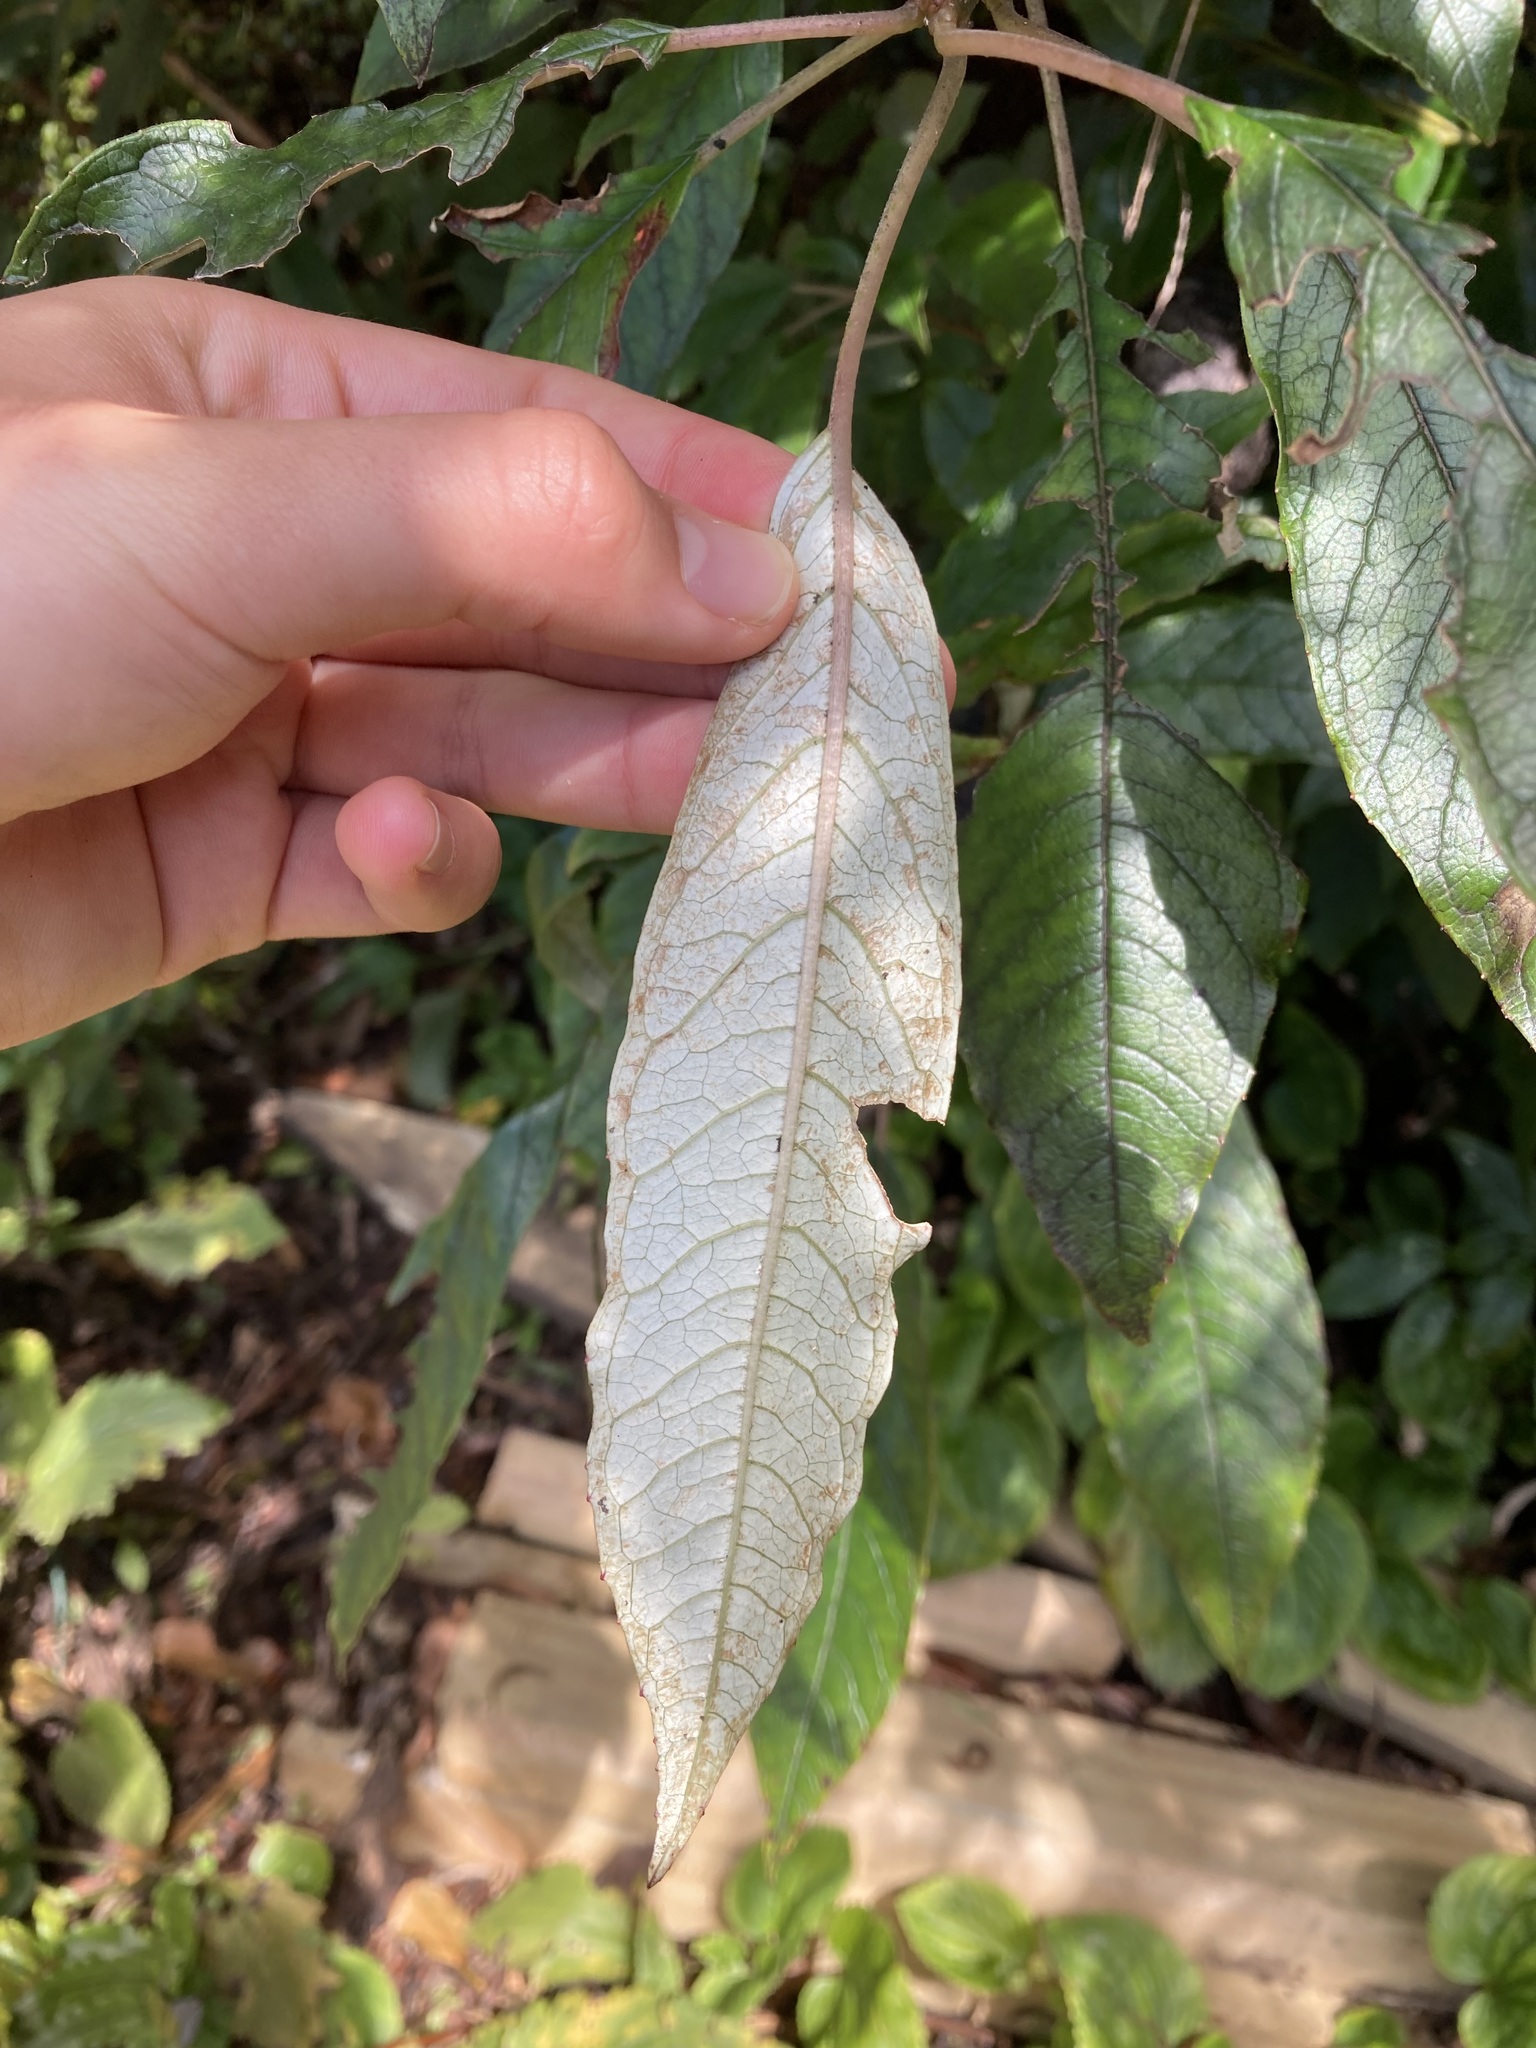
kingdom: Plantae
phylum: Tracheophyta
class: Magnoliopsida
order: Myrtales
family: Onagraceae
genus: Fuchsia
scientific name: Fuchsia excorticata
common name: Tree fuchsia
